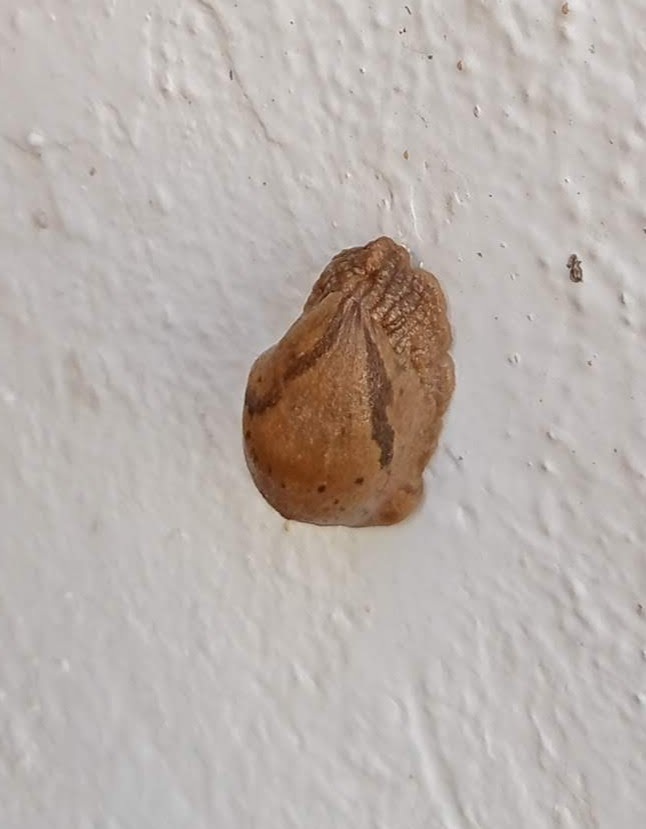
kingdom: Animalia
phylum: Mollusca
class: Gastropoda
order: Stylommatophora
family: Parmacellidae
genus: Drusia
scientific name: Drusia valenciennii
